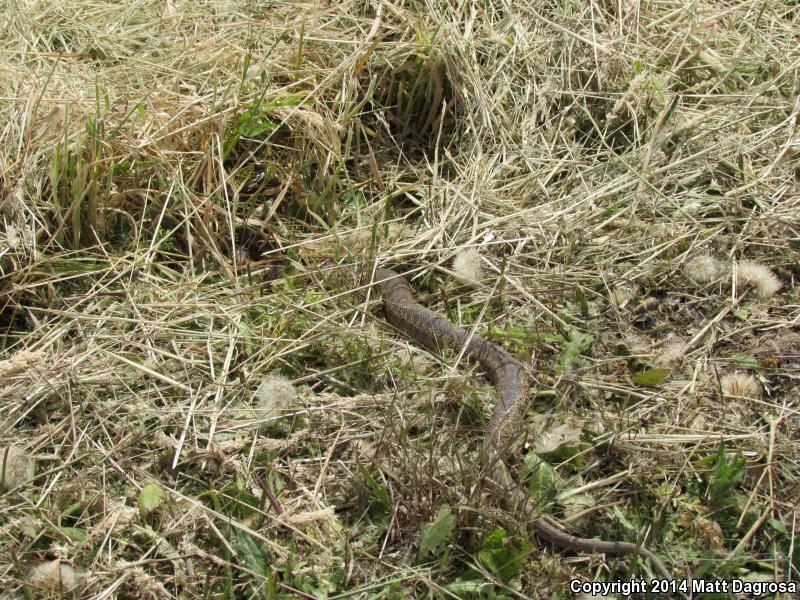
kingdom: Animalia
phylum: Chordata
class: Squamata
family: Colubridae
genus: Pituophis
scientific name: Pituophis catenifer
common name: Gopher snake
